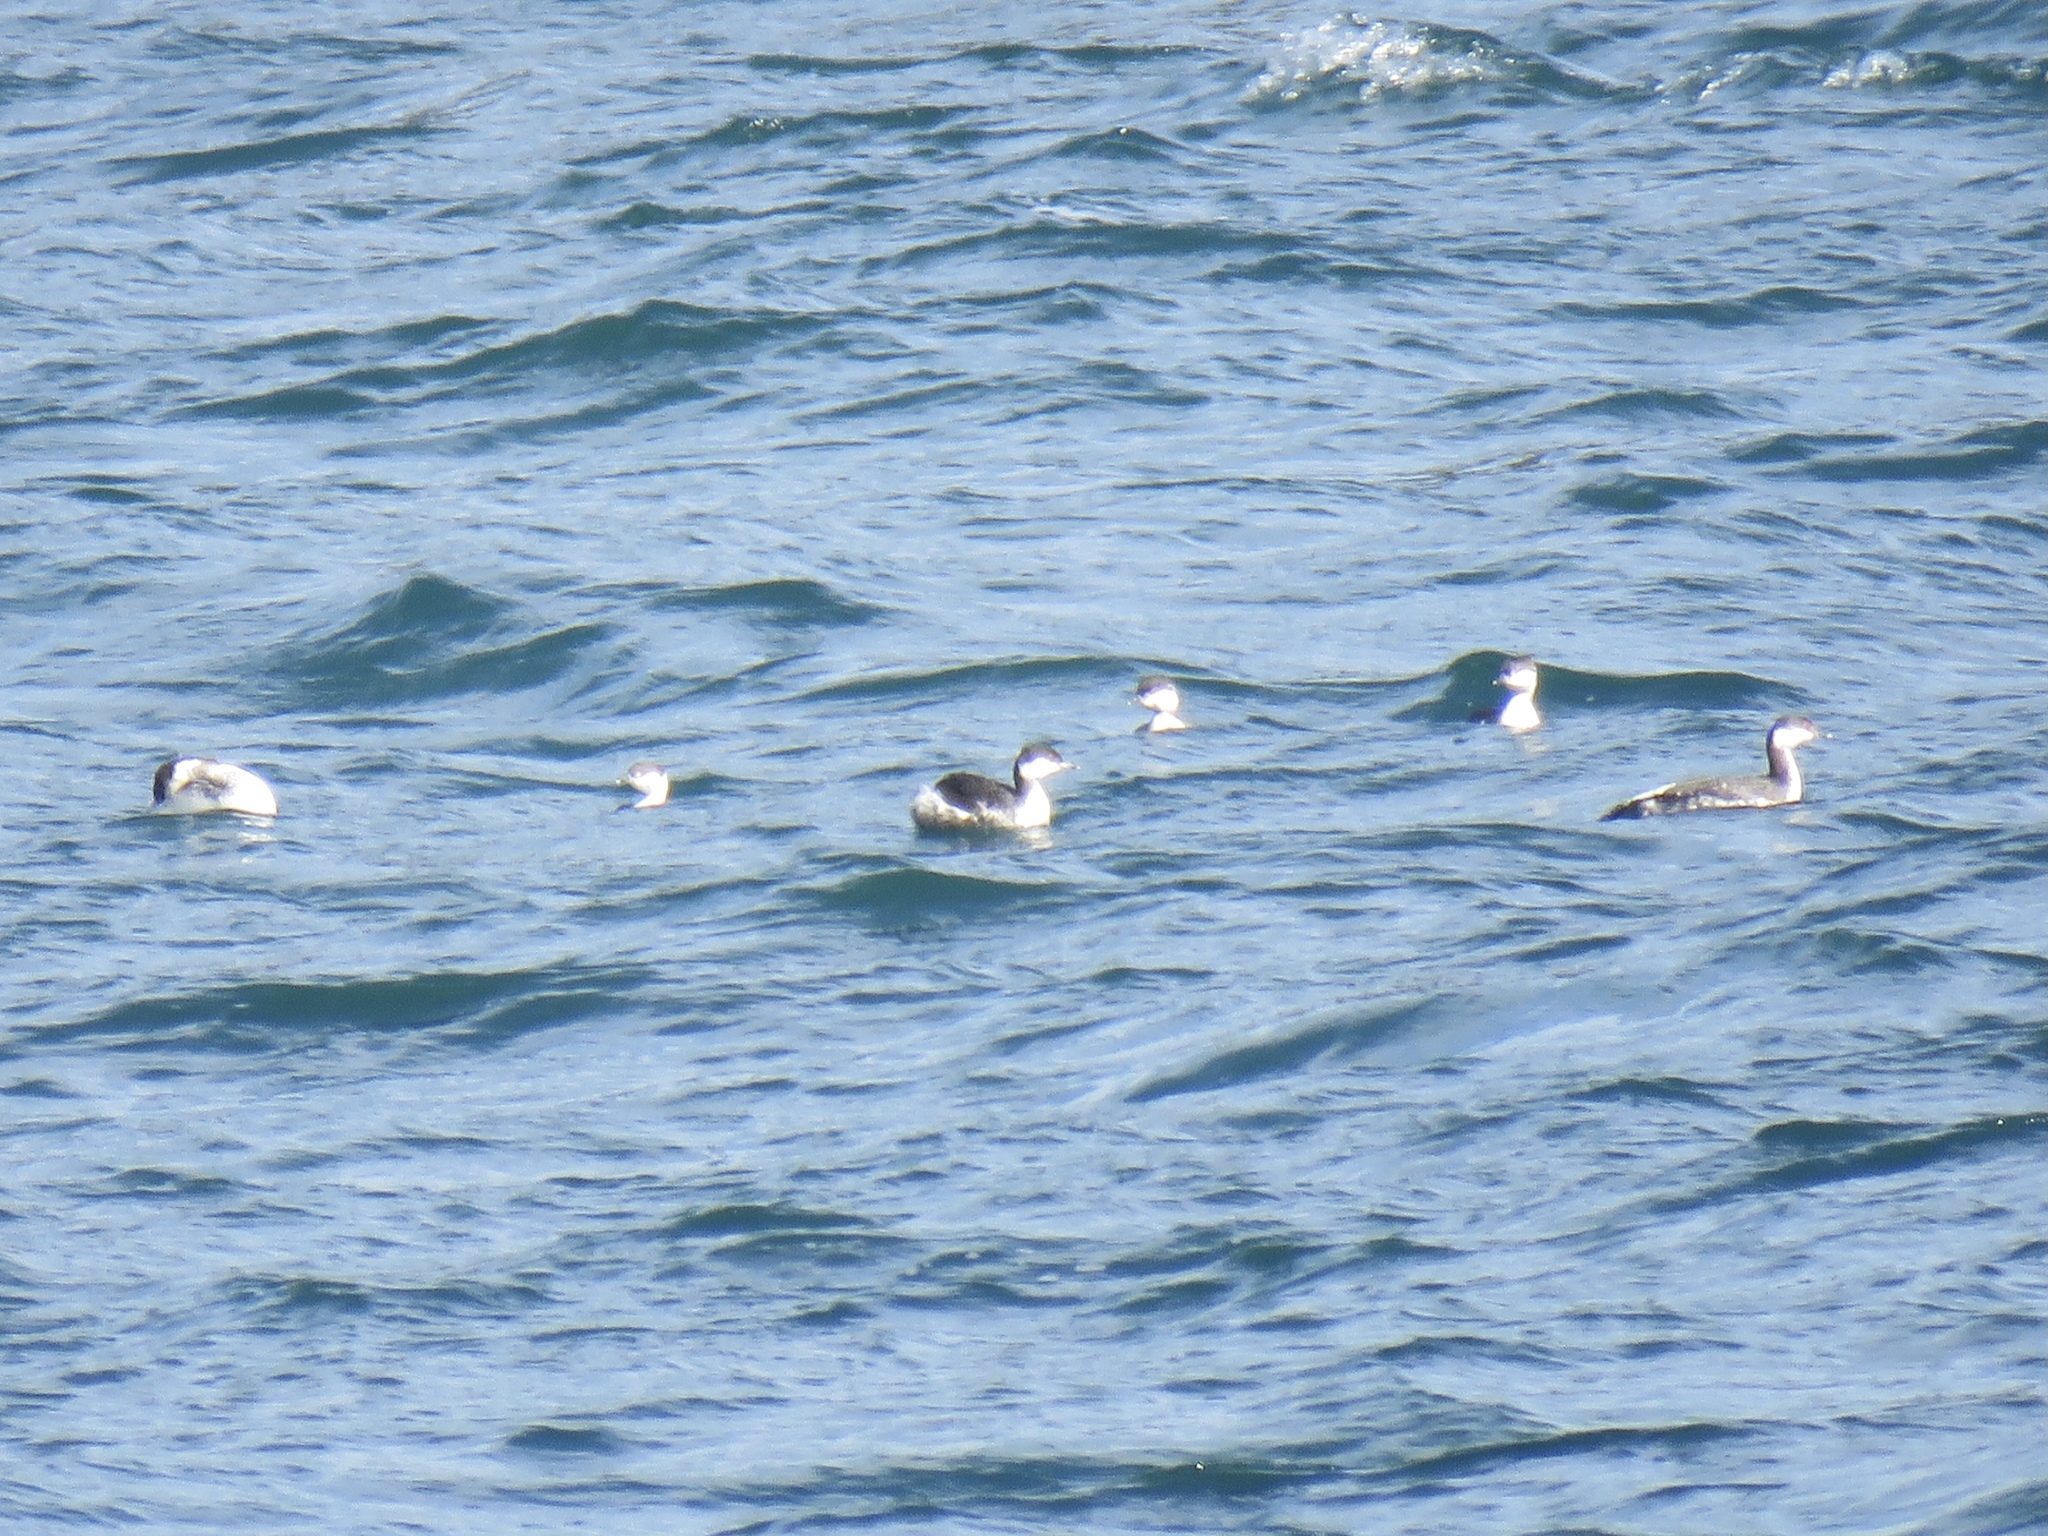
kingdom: Animalia
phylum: Chordata
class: Aves
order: Podicipediformes
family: Podicipedidae
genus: Podiceps
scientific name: Podiceps auritus
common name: Horned grebe
